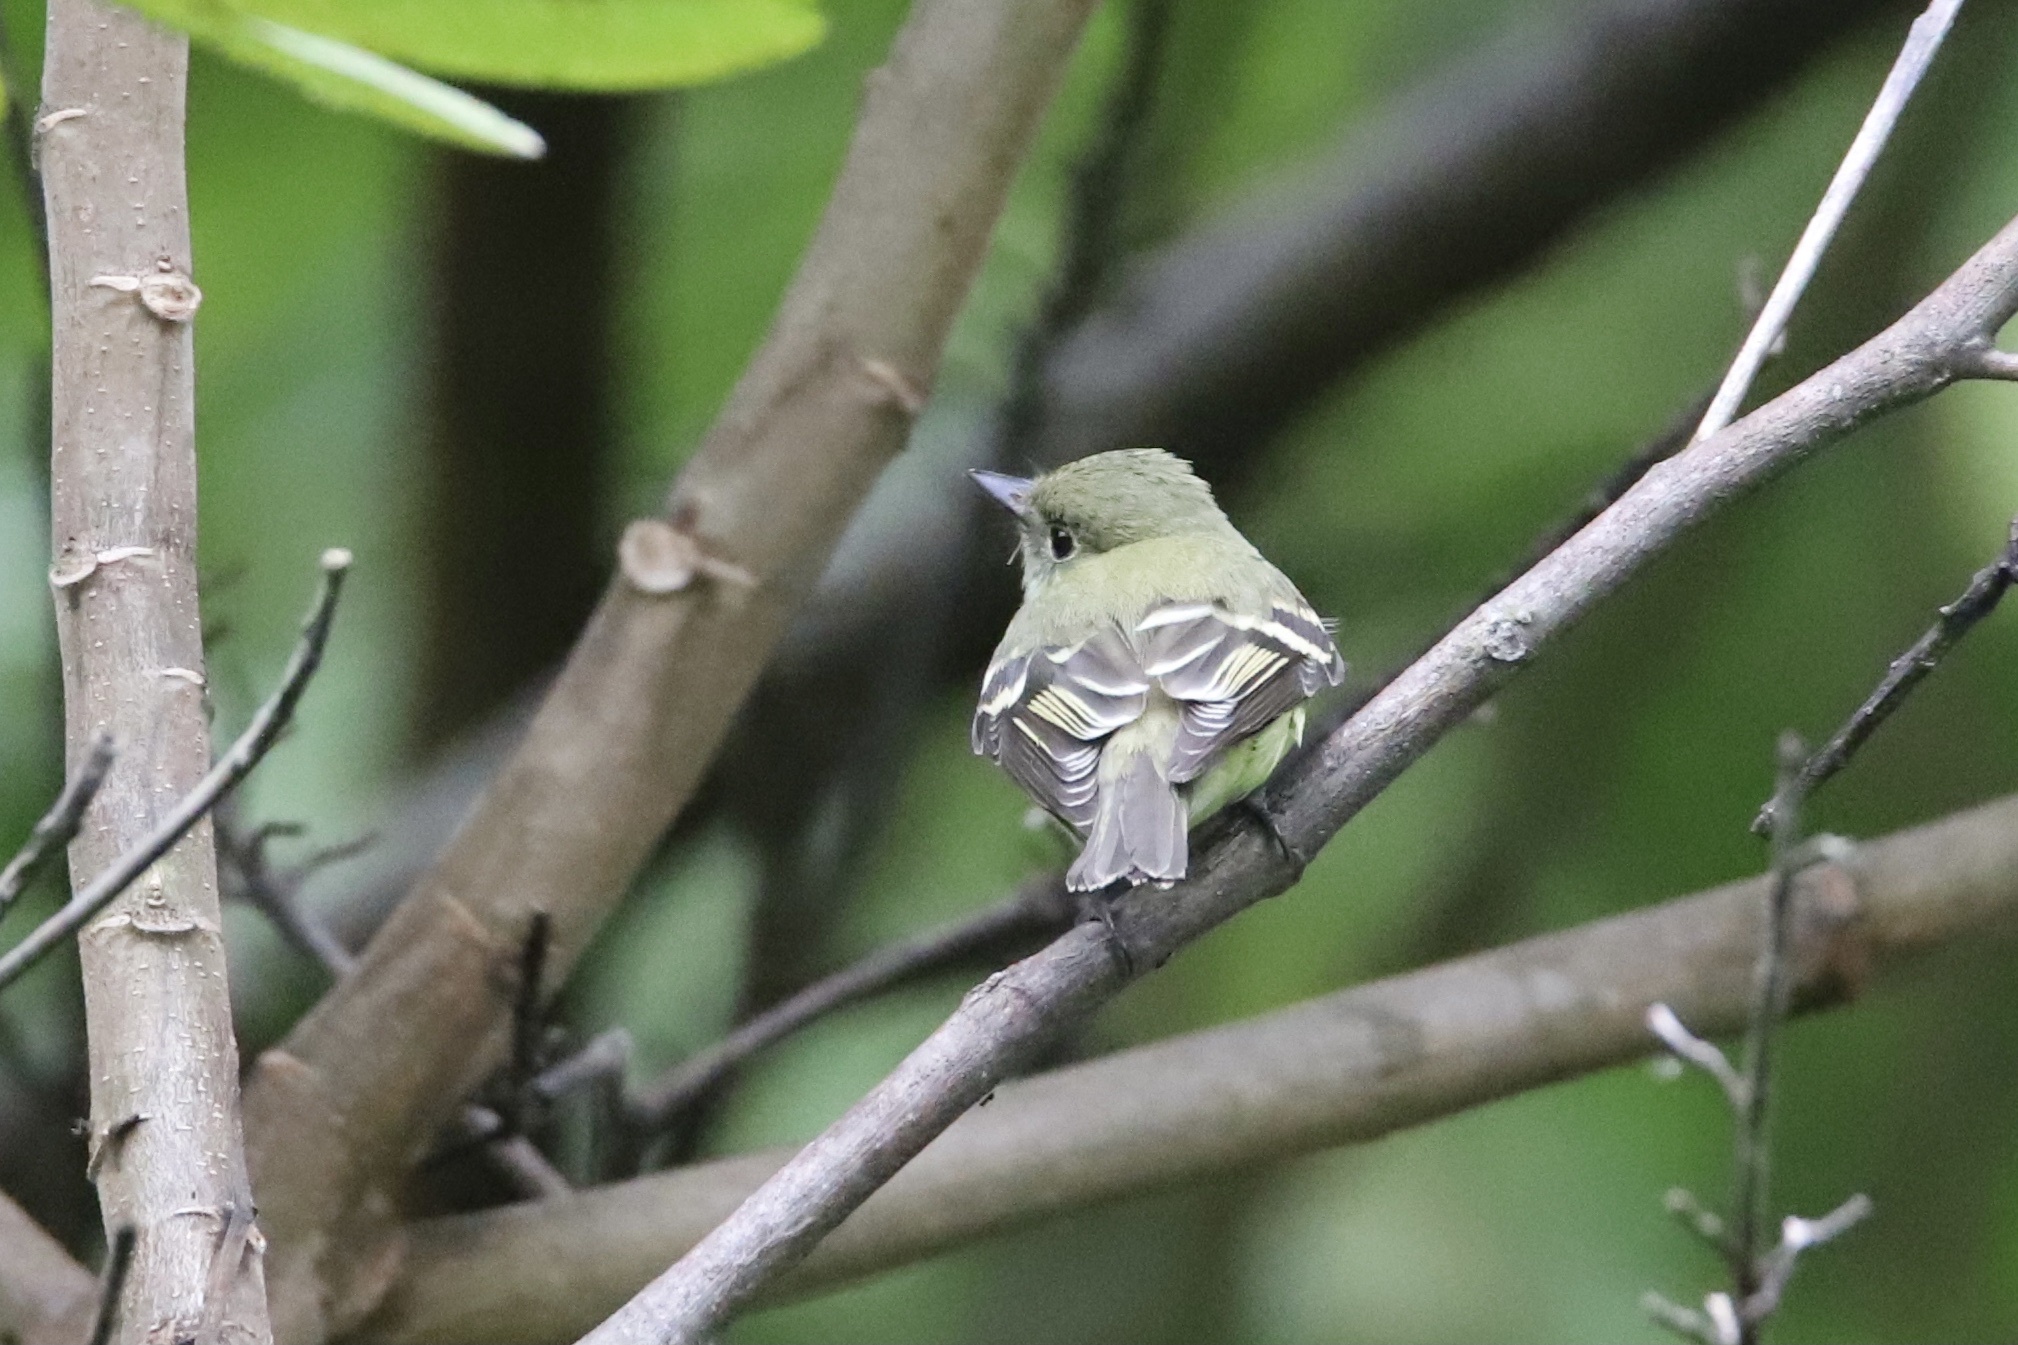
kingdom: Animalia
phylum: Chordata
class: Aves
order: Passeriformes
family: Tyrannidae
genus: Empidonax
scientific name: Empidonax virescens
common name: Acadian flycatcher
